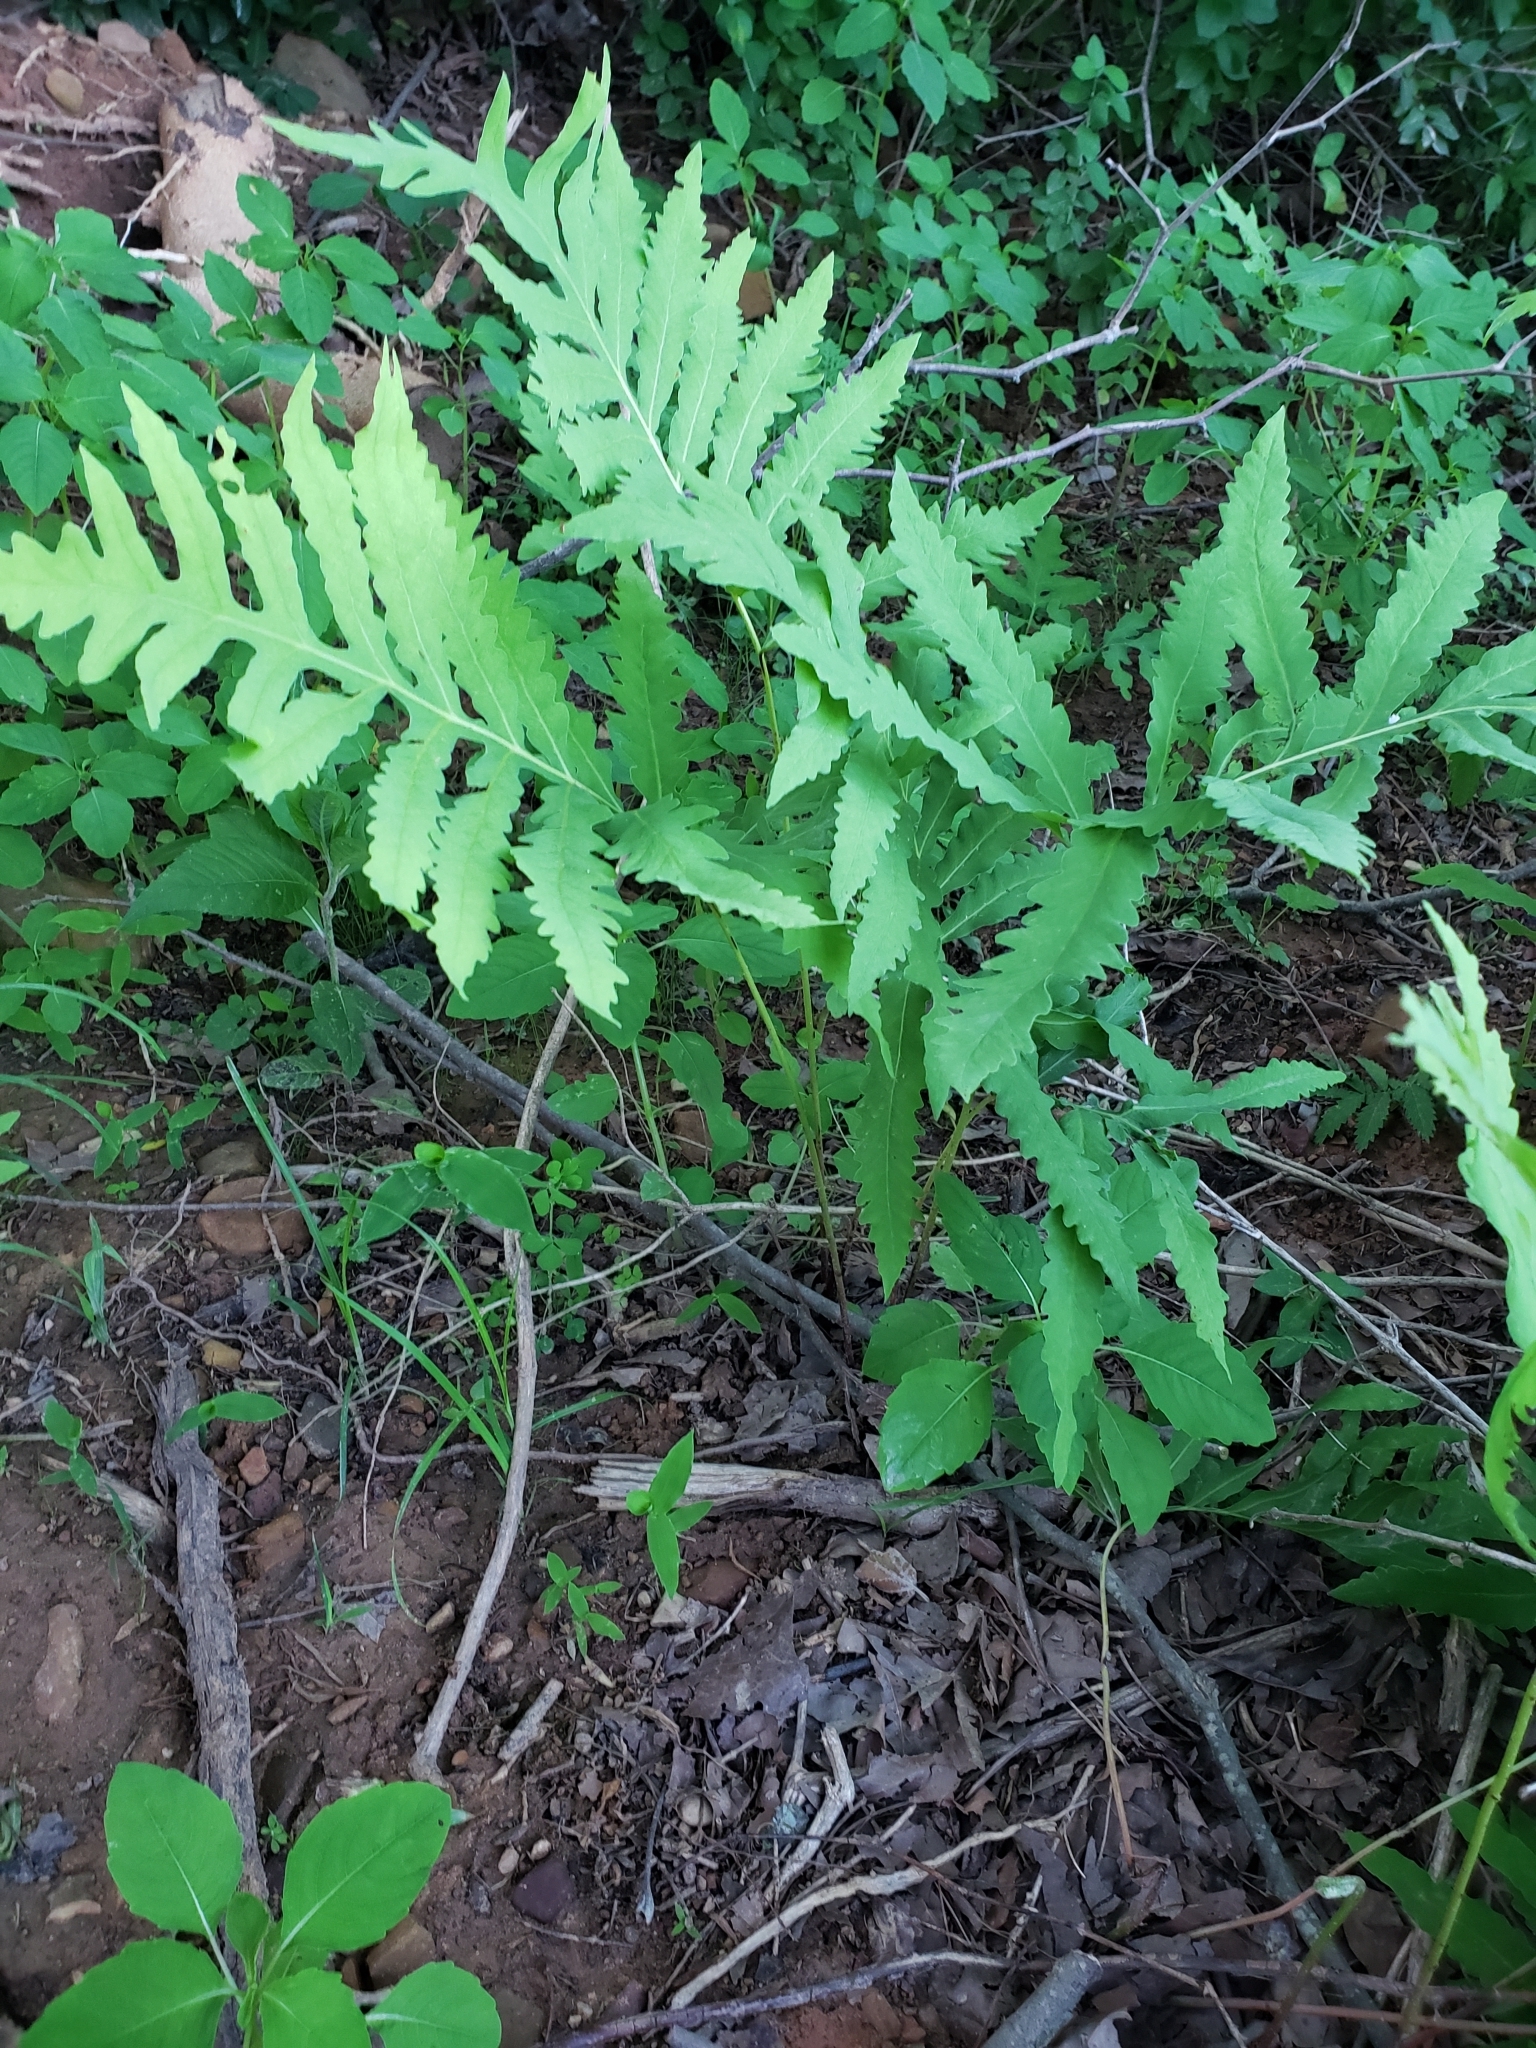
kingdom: Plantae
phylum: Tracheophyta
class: Polypodiopsida
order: Polypodiales
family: Onocleaceae
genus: Onoclea
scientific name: Onoclea sensibilis
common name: Sensitive fern
